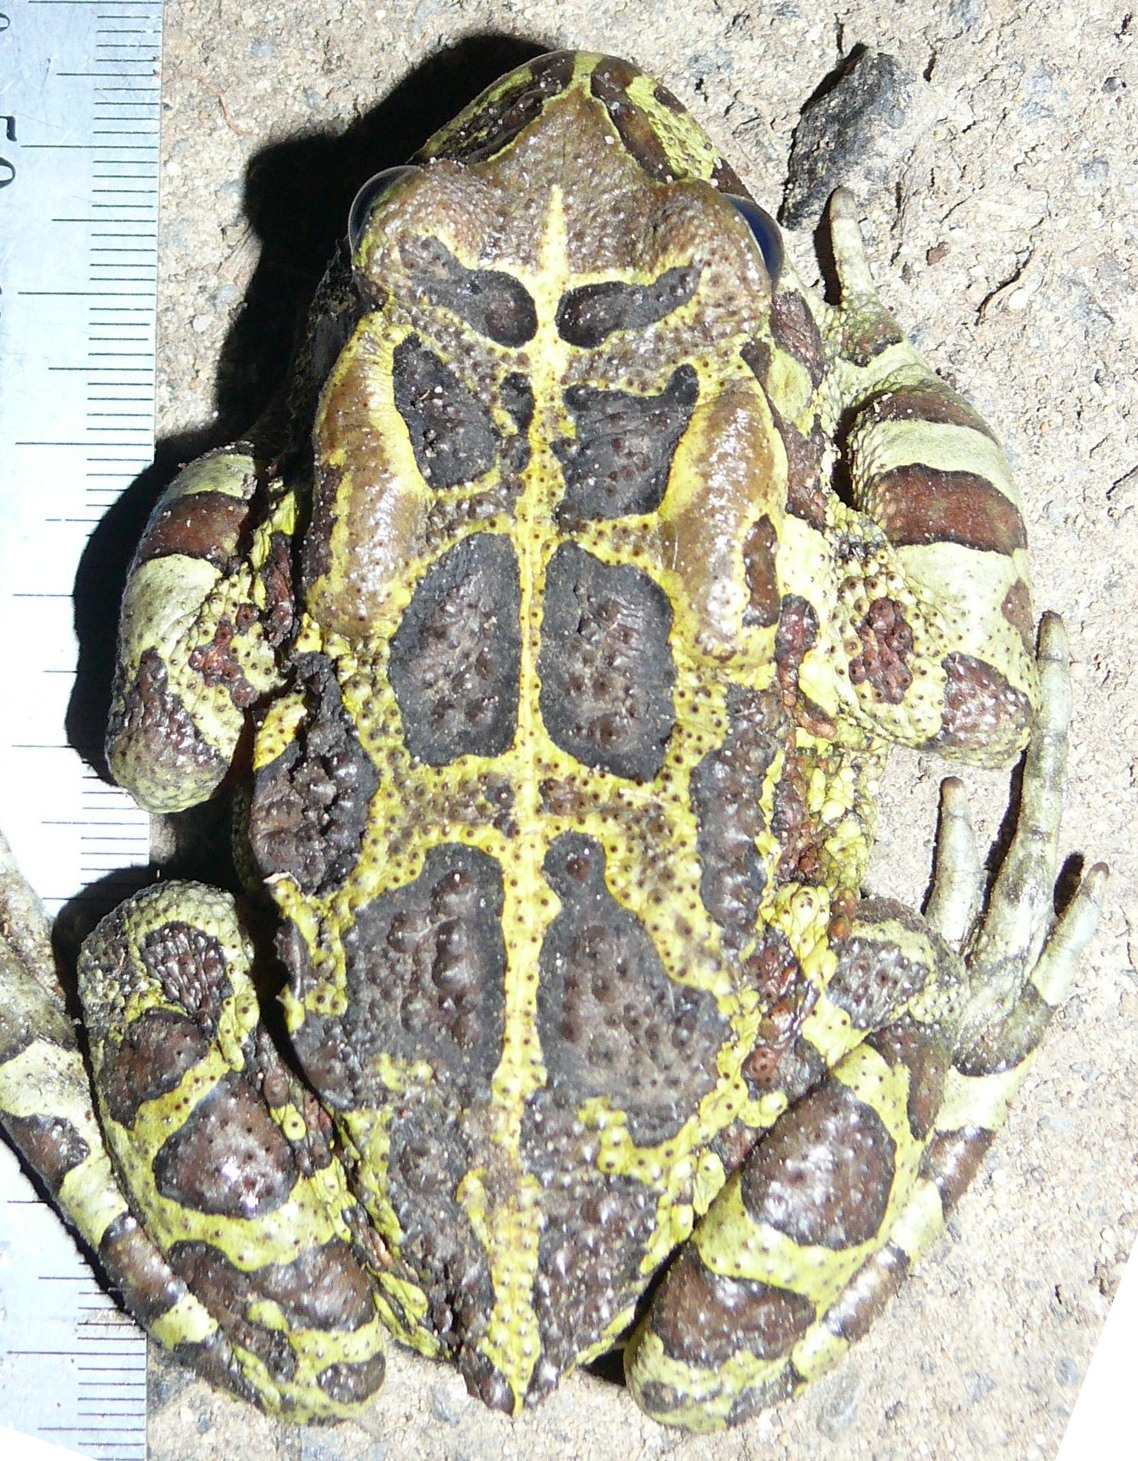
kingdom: Animalia
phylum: Chordata
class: Amphibia
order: Anura
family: Bufonidae
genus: Sclerophrys
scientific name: Sclerophrys pantherina
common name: Panther toad
